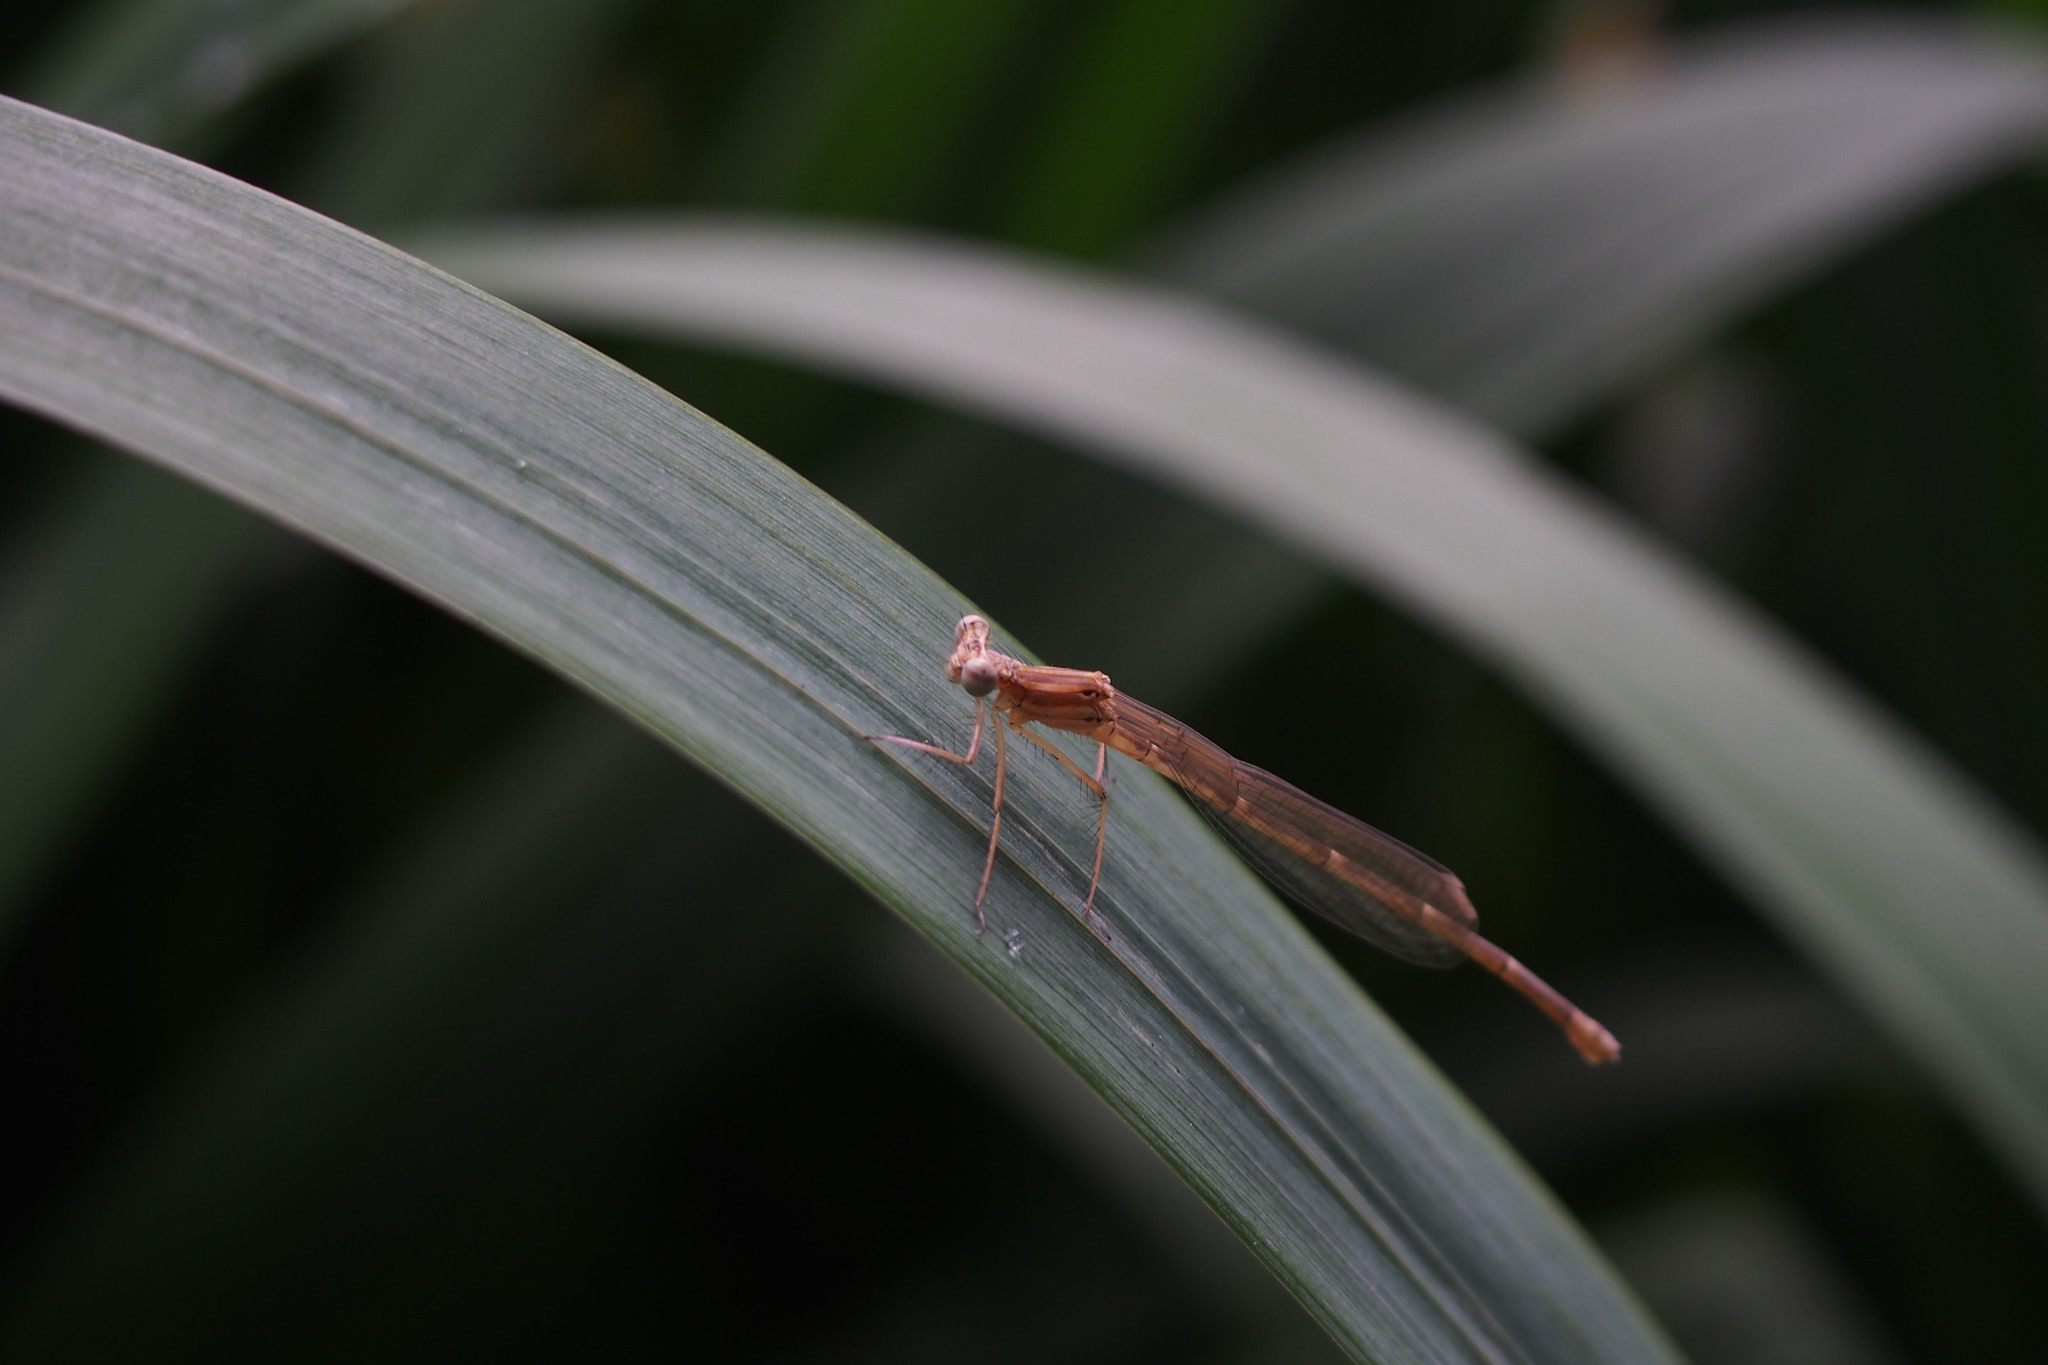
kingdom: Animalia
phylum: Arthropoda
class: Insecta
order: Odonata
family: Platycnemididae
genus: Pseudocopera
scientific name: Pseudocopera annulata
